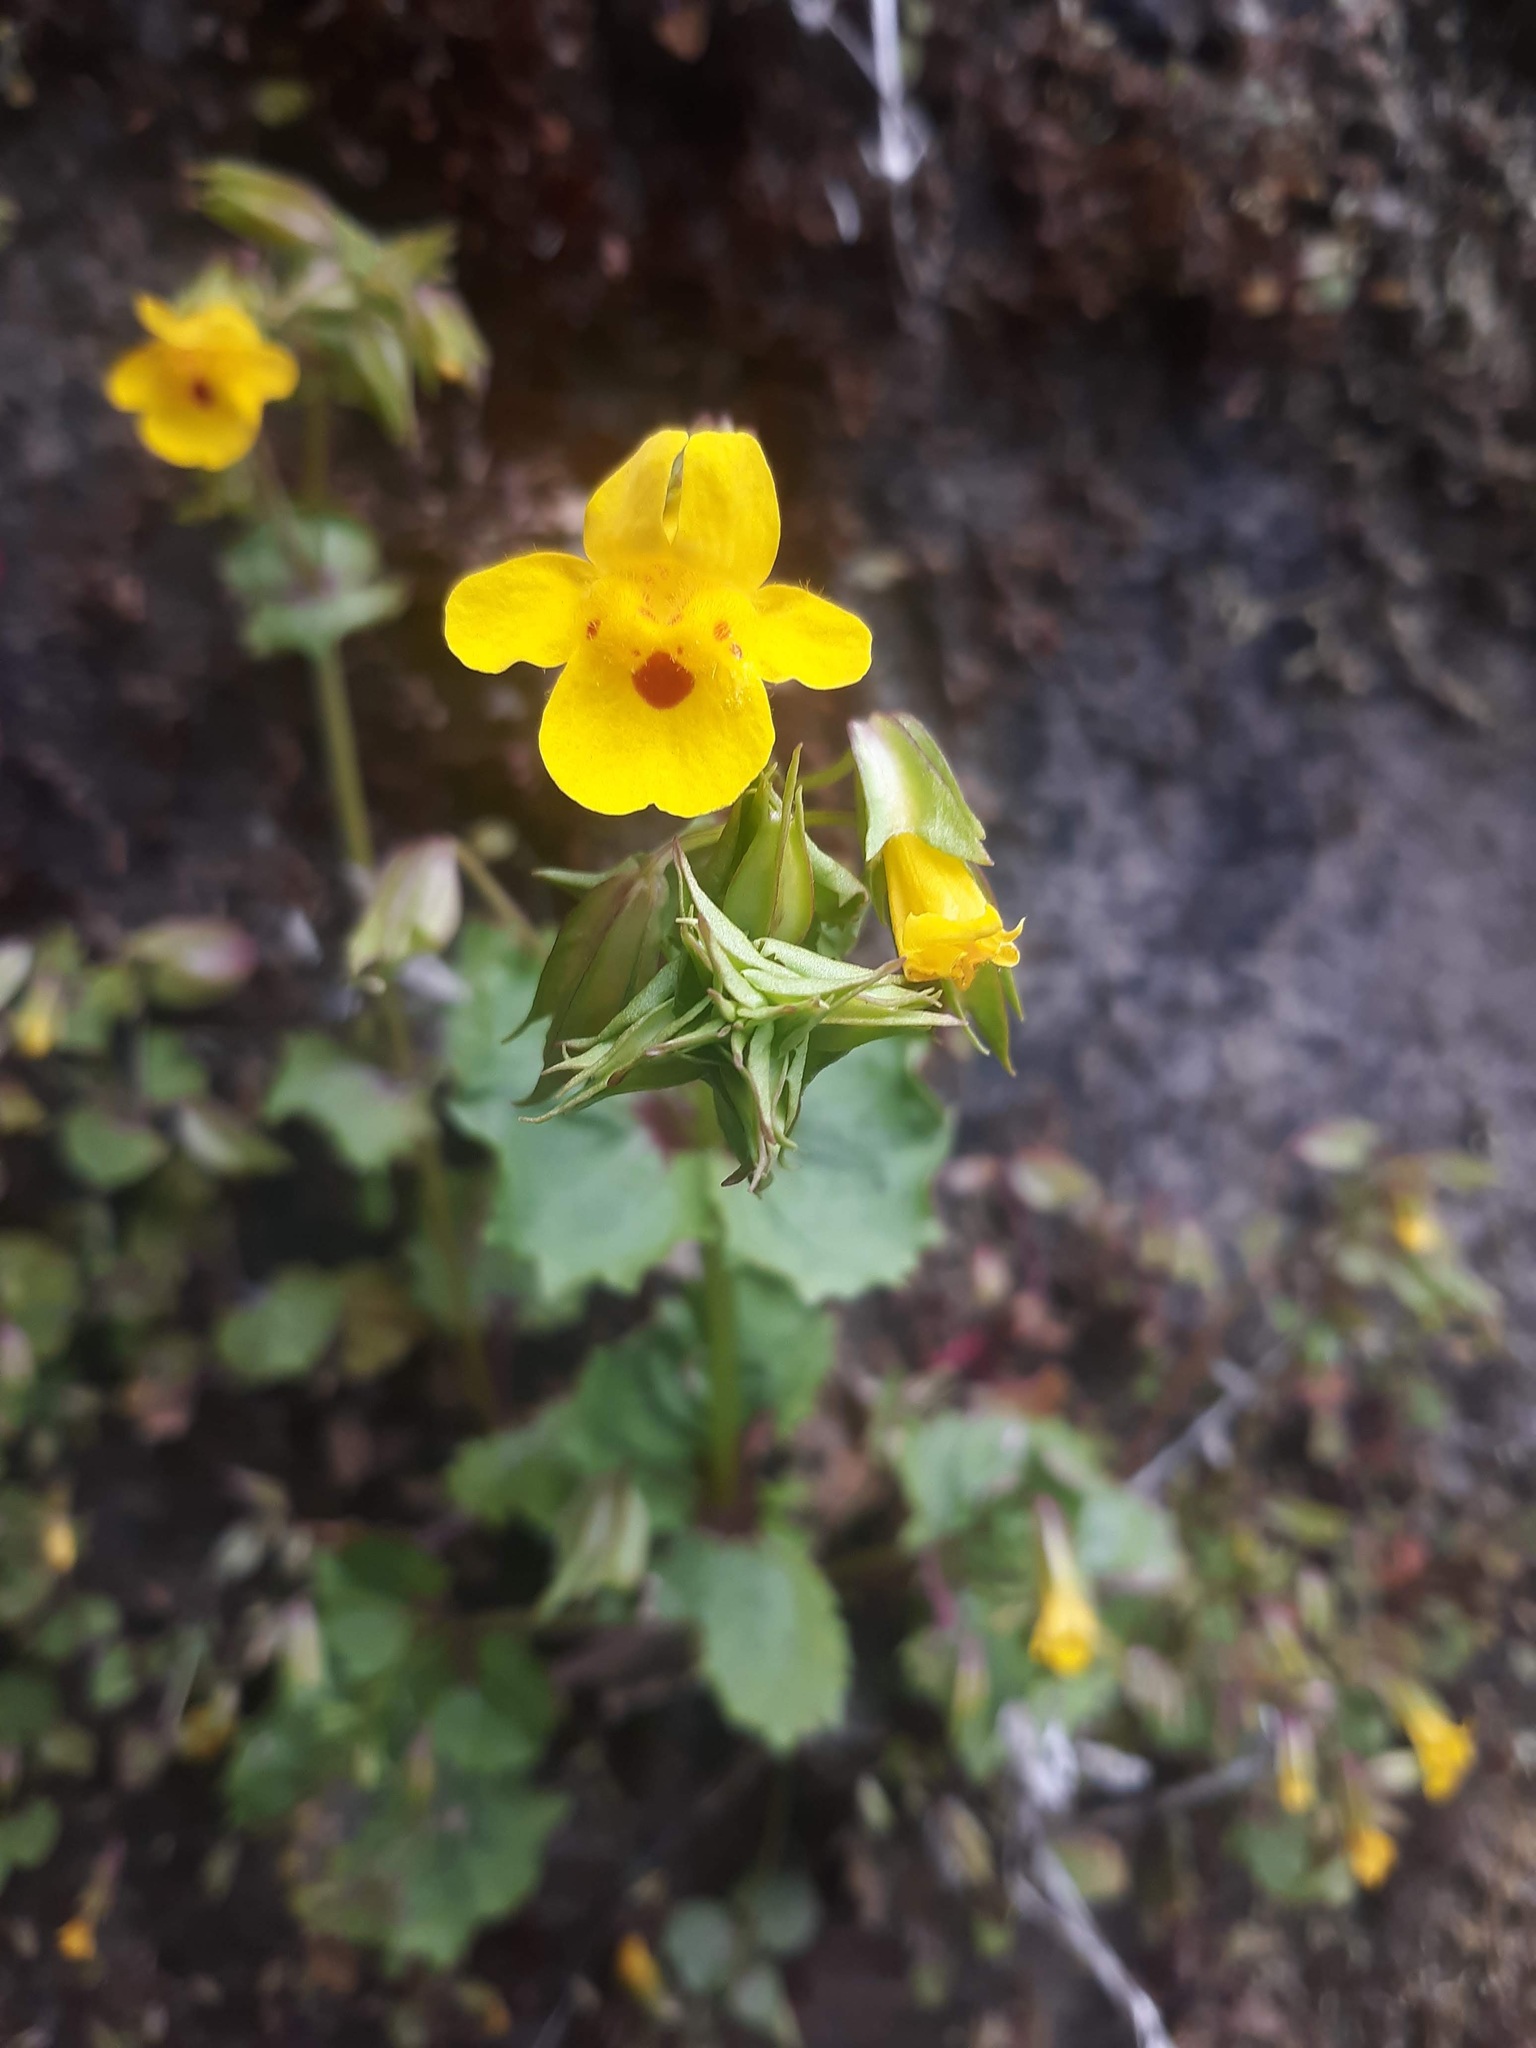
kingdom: Plantae
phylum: Tracheophyta
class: Magnoliopsida
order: Lamiales
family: Phrymaceae
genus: Erythranthe
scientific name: Erythranthe nasuta
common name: Sooke monkeyflower
